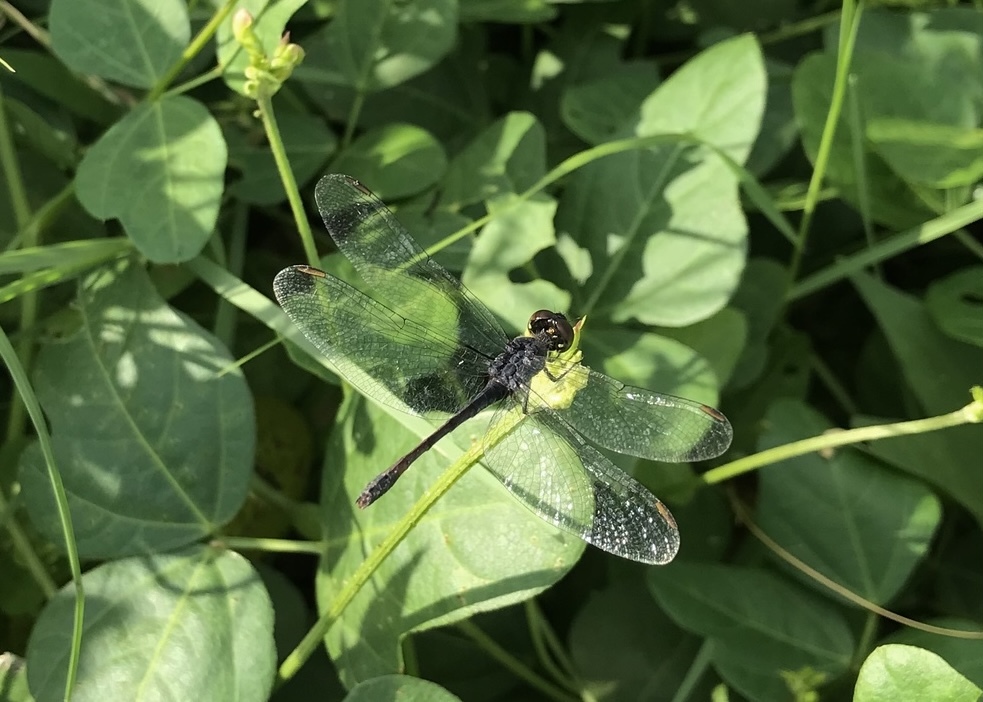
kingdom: Animalia
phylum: Arthropoda
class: Insecta
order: Odonata
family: Libellulidae
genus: Erythrodiplax
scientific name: Erythrodiplax berenice
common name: Seaside dragonlet
